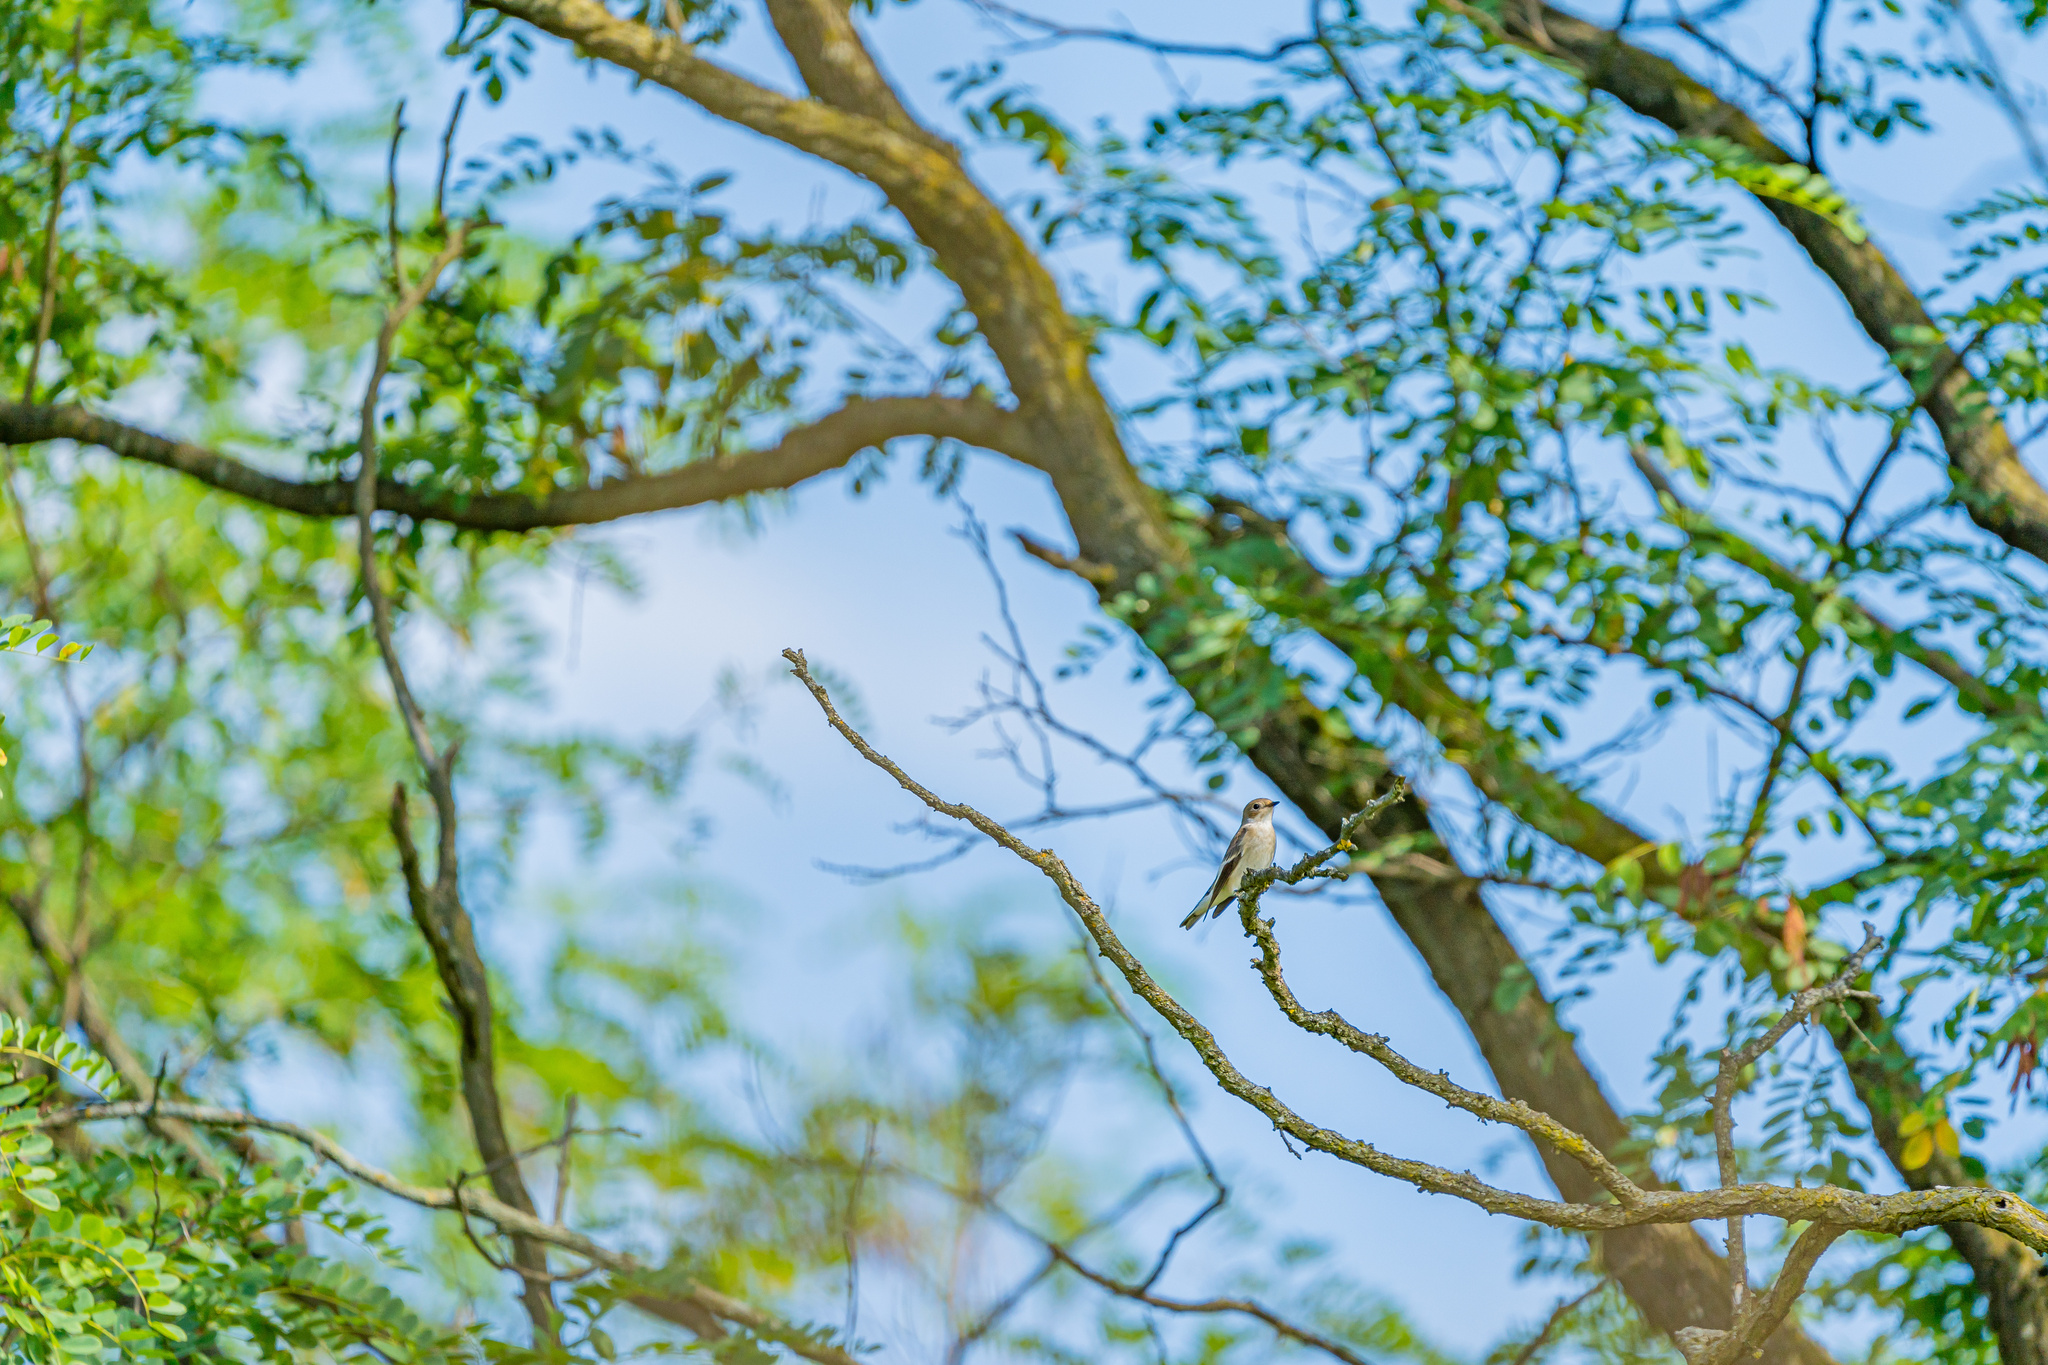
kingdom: Animalia
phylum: Chordata
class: Aves
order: Passeriformes
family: Muscicapidae
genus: Ficedula
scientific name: Ficedula hypoleuca
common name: European pied flycatcher
